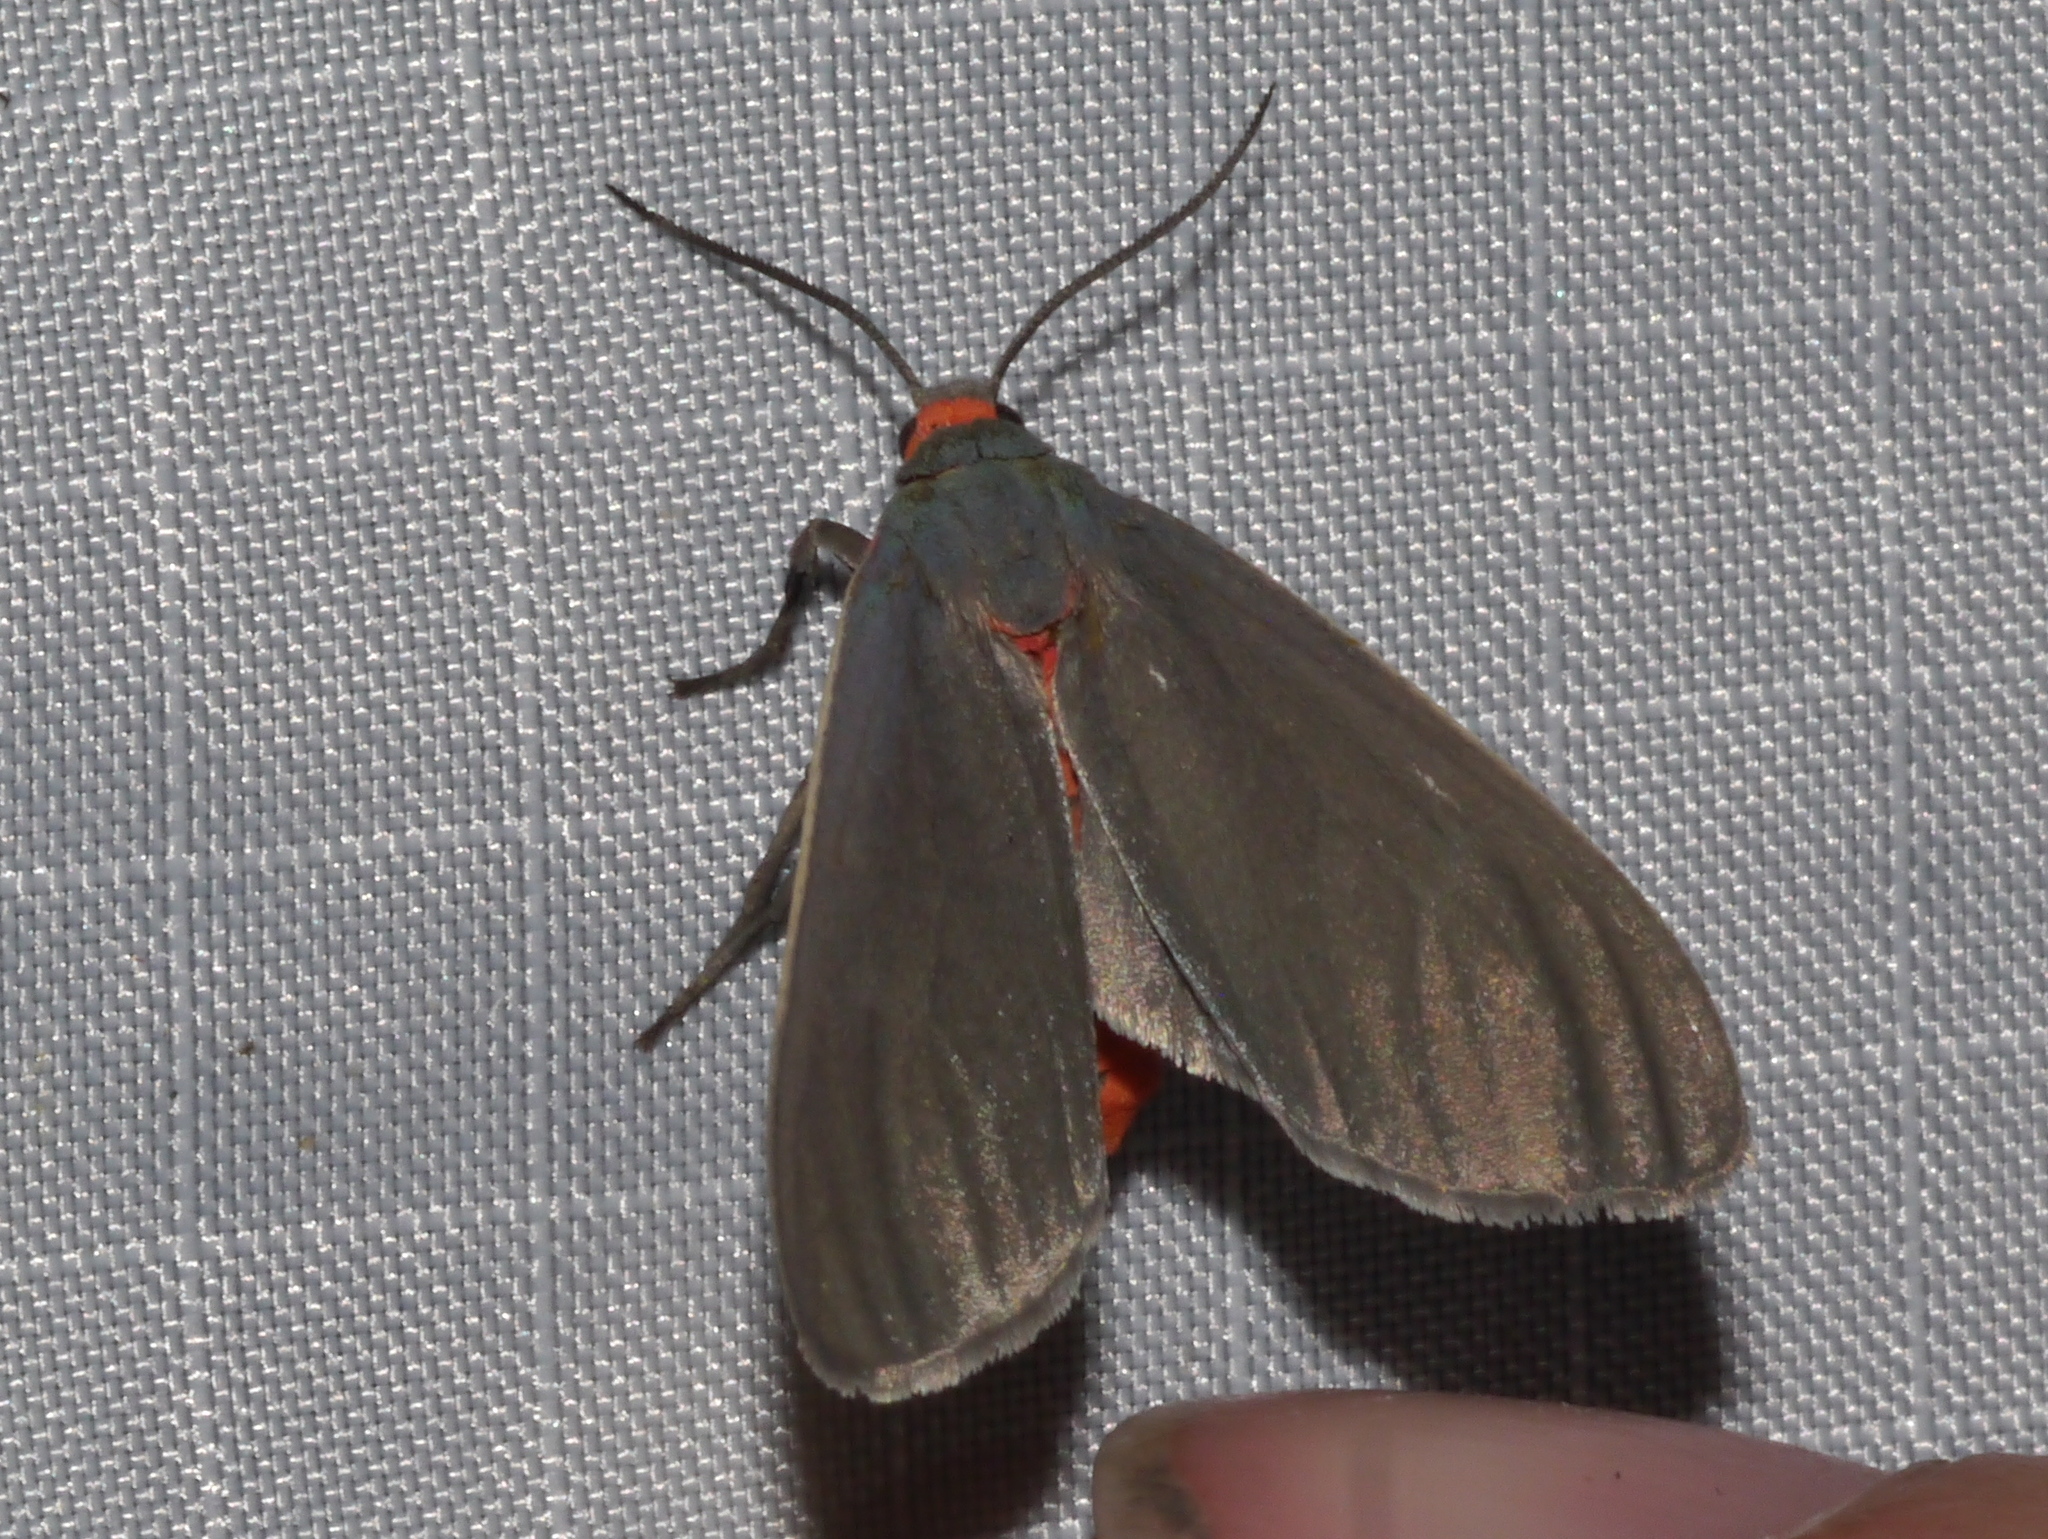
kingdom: Animalia
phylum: Arthropoda
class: Insecta
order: Lepidoptera
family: Erebidae
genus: Pygarctia
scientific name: Pygarctia murina
